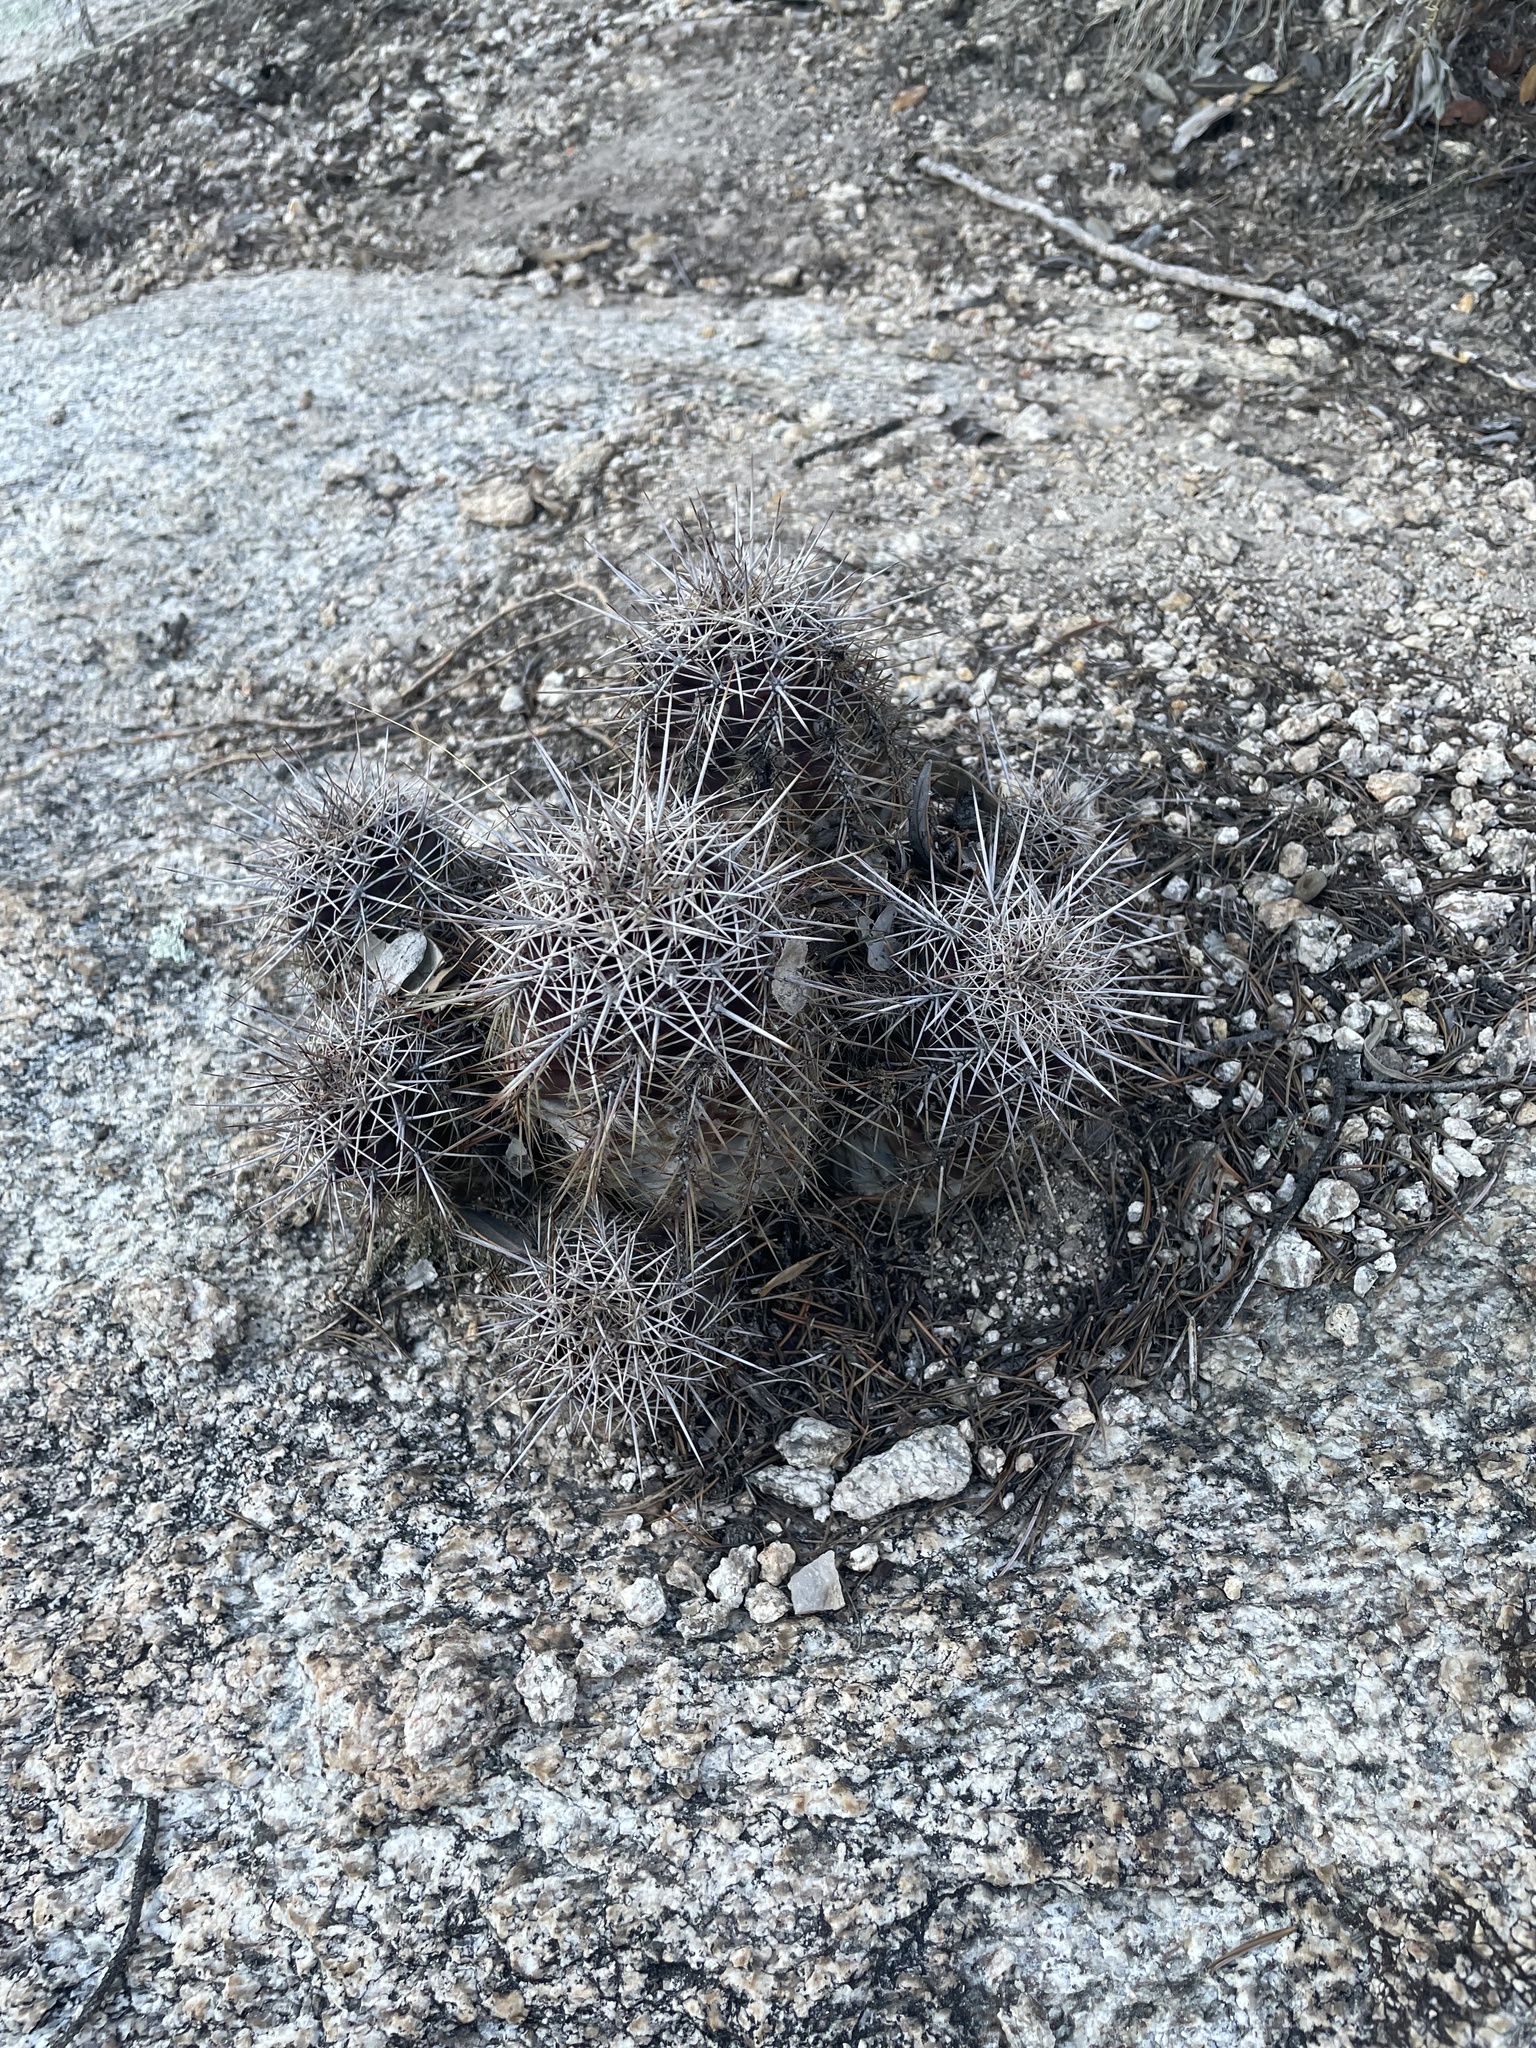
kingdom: Plantae
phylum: Tracheophyta
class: Magnoliopsida
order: Caryophyllales
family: Cactaceae
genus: Echinocereus
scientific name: Echinocereus coccineus
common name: Scarlet hedgehog cactus
